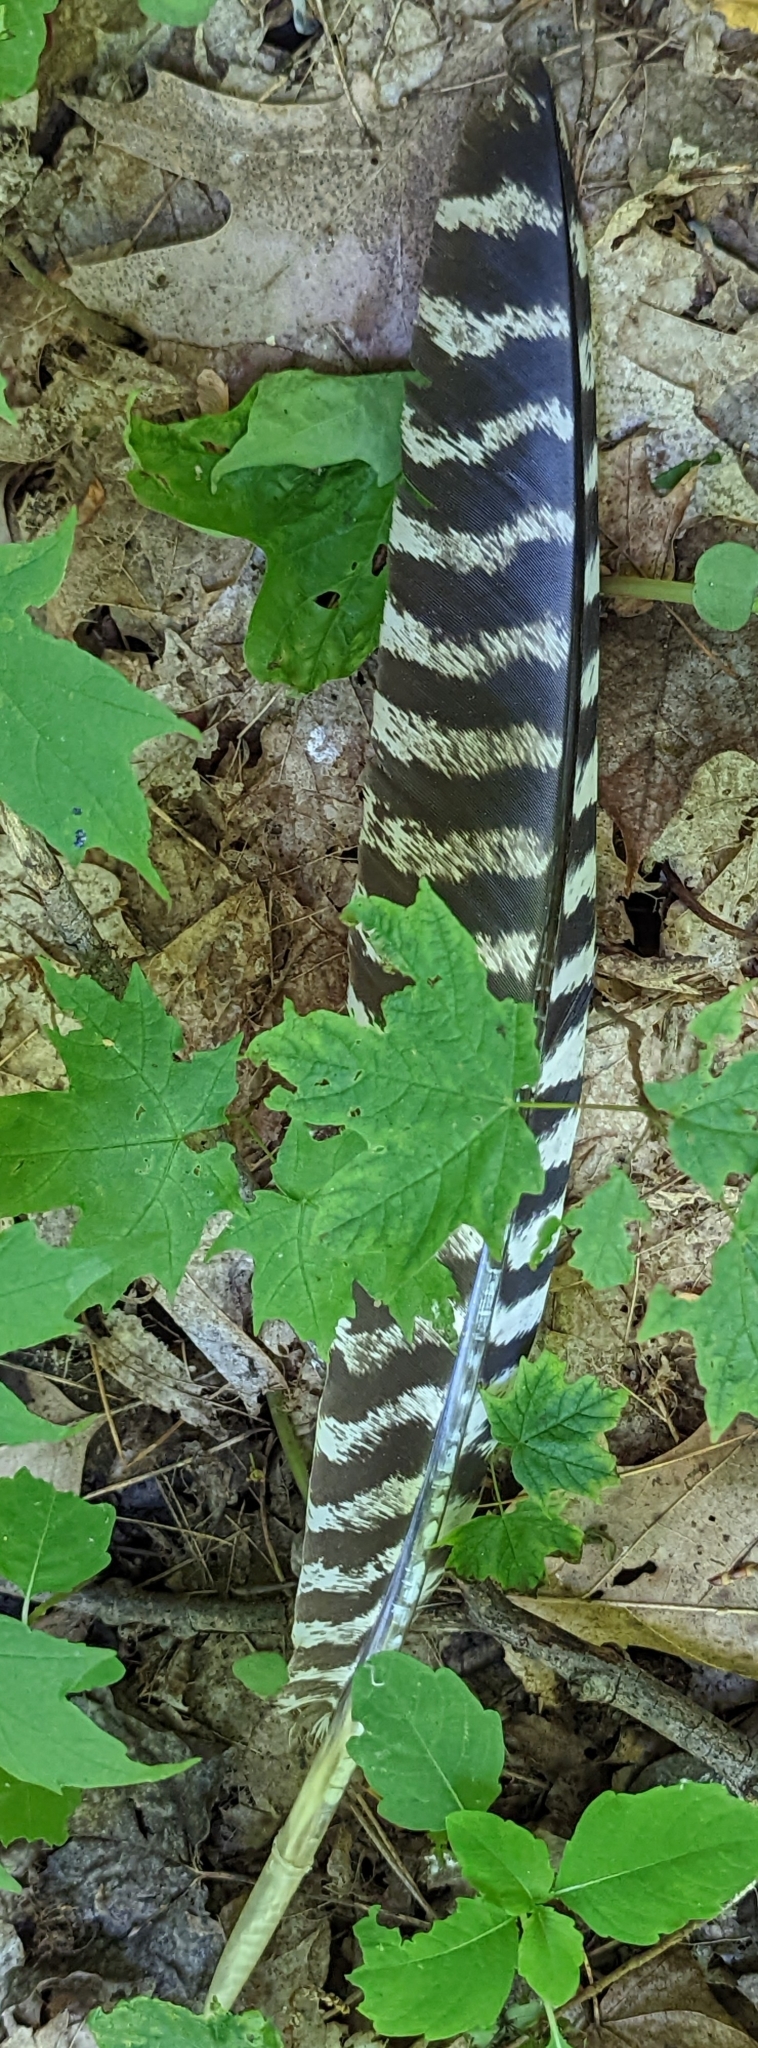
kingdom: Animalia
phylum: Chordata
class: Aves
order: Galliformes
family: Phasianidae
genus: Meleagris
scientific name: Meleagris gallopavo
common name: Wild turkey
